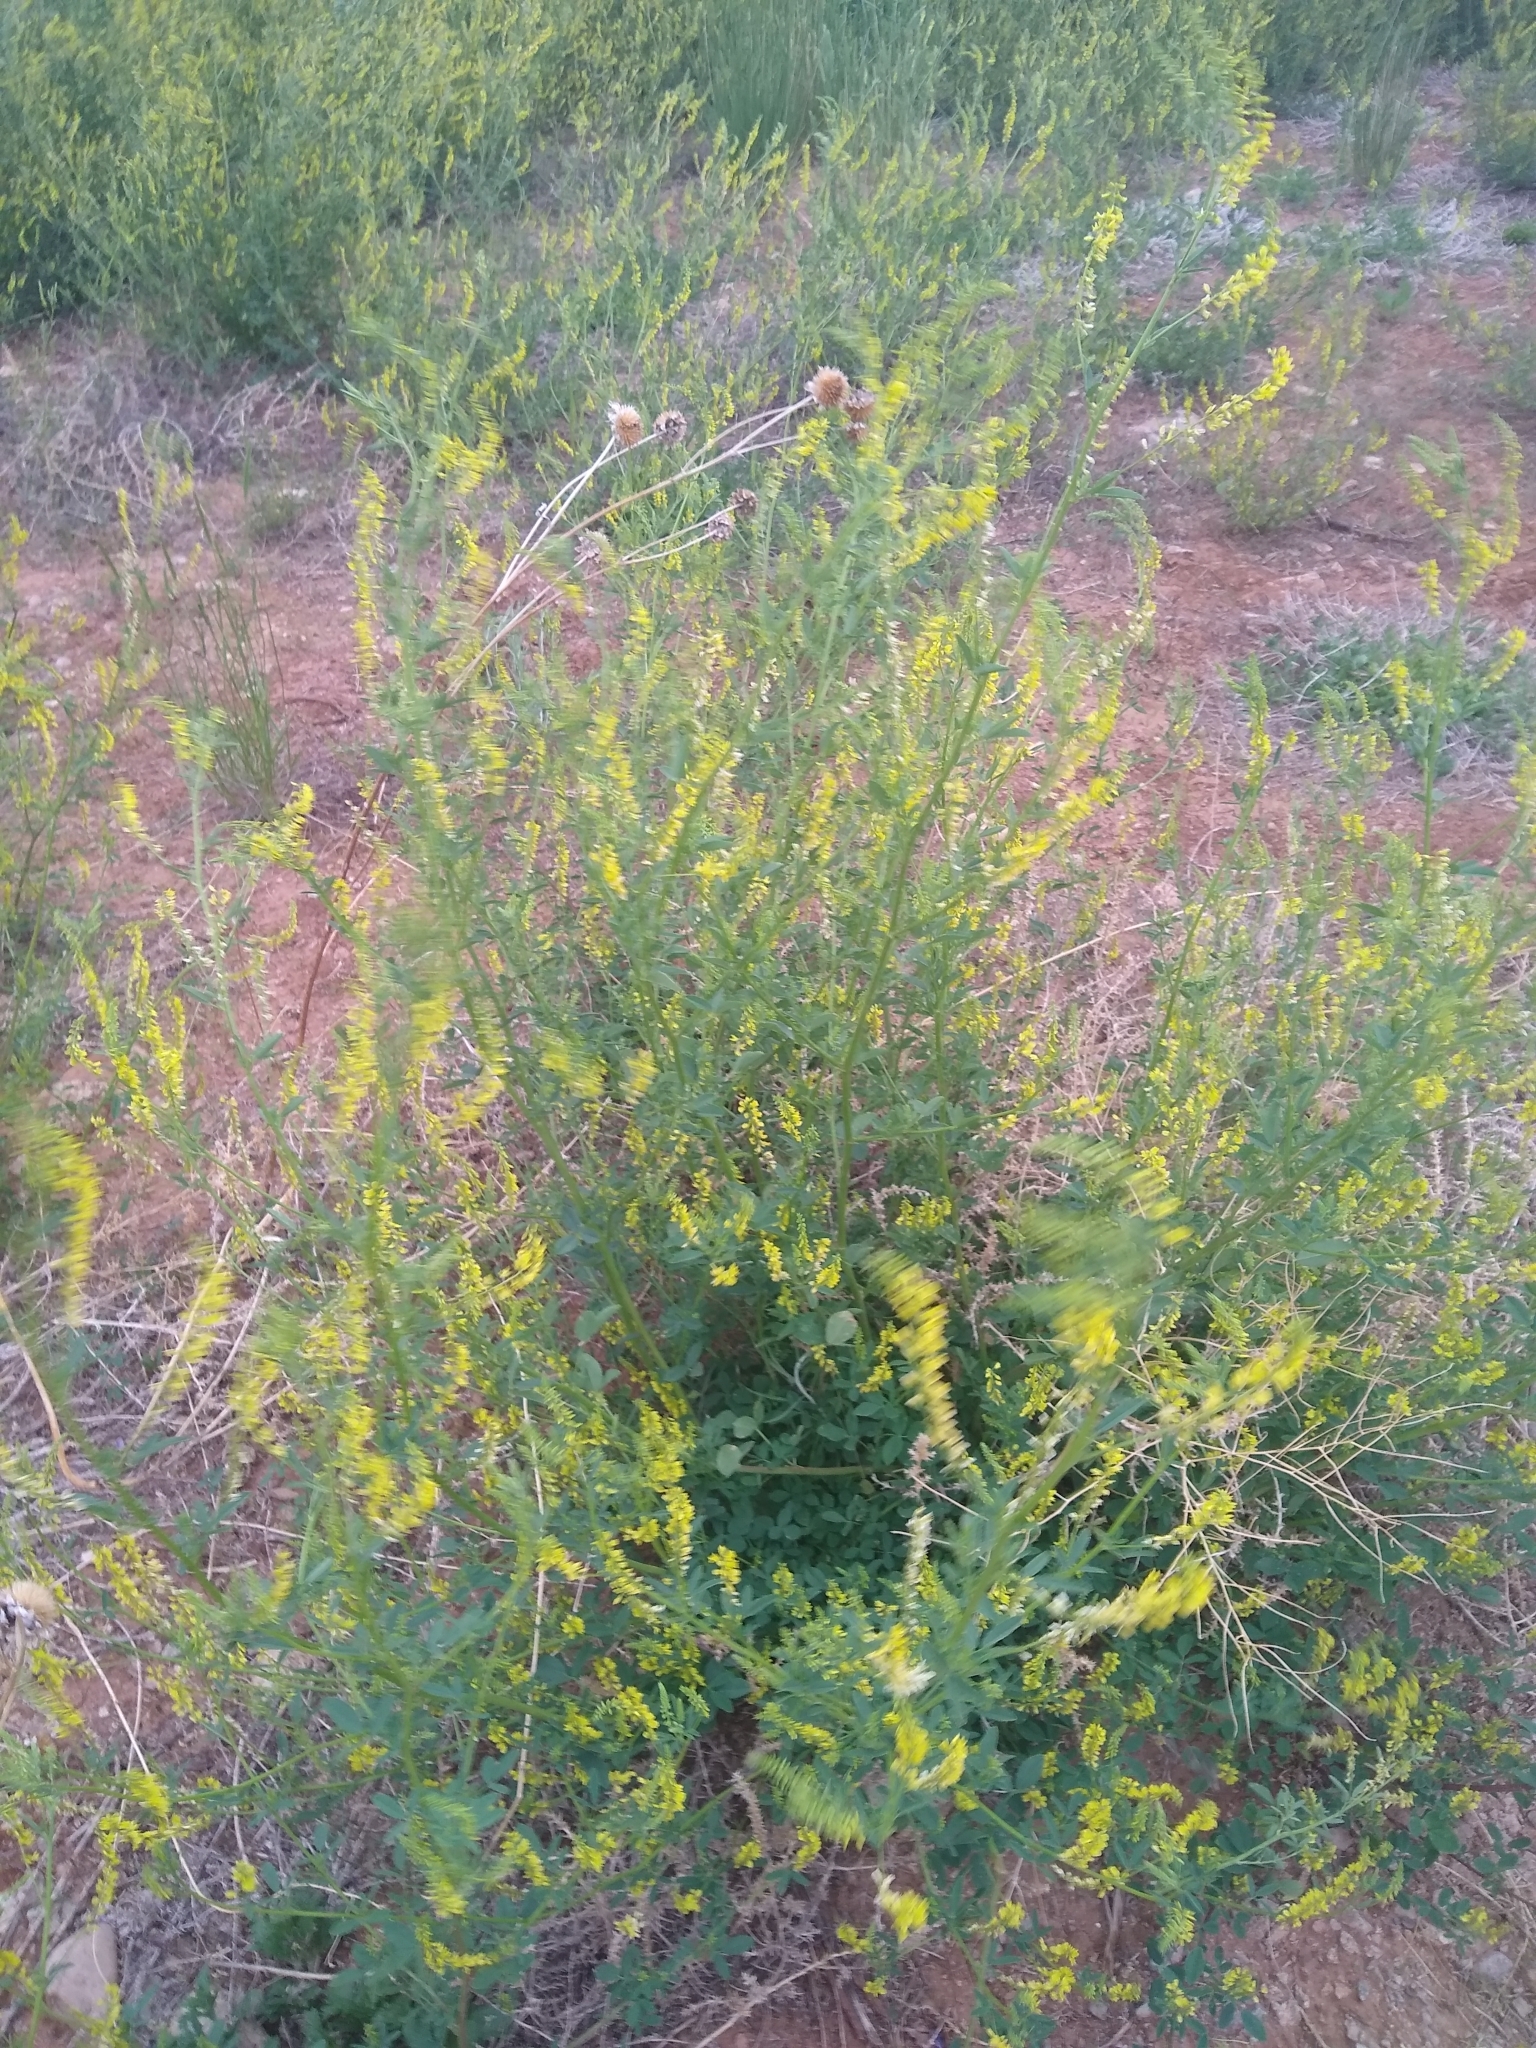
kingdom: Plantae
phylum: Tracheophyta
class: Magnoliopsida
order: Fabales
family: Fabaceae
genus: Melilotus
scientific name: Melilotus officinalis
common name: Sweetclover
